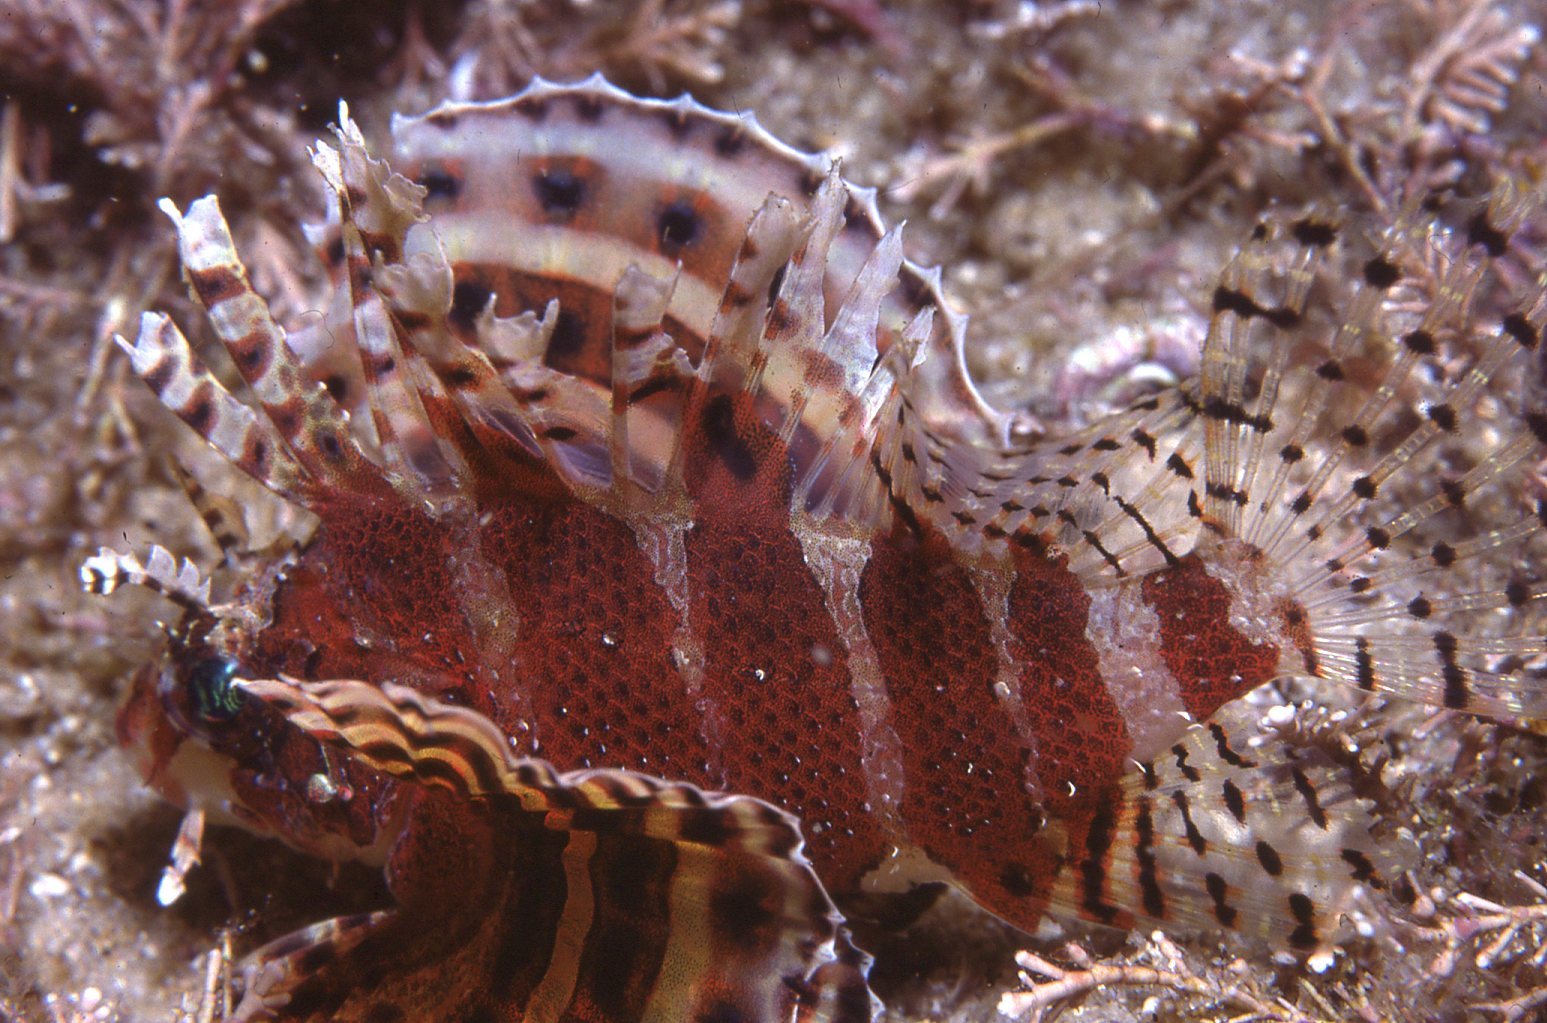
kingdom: Animalia
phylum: Chordata
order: Scorpaeniformes
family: Scorpaenidae
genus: Dendrochirus
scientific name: Dendrochirus brachypterus
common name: Shortfin turkeyfish
